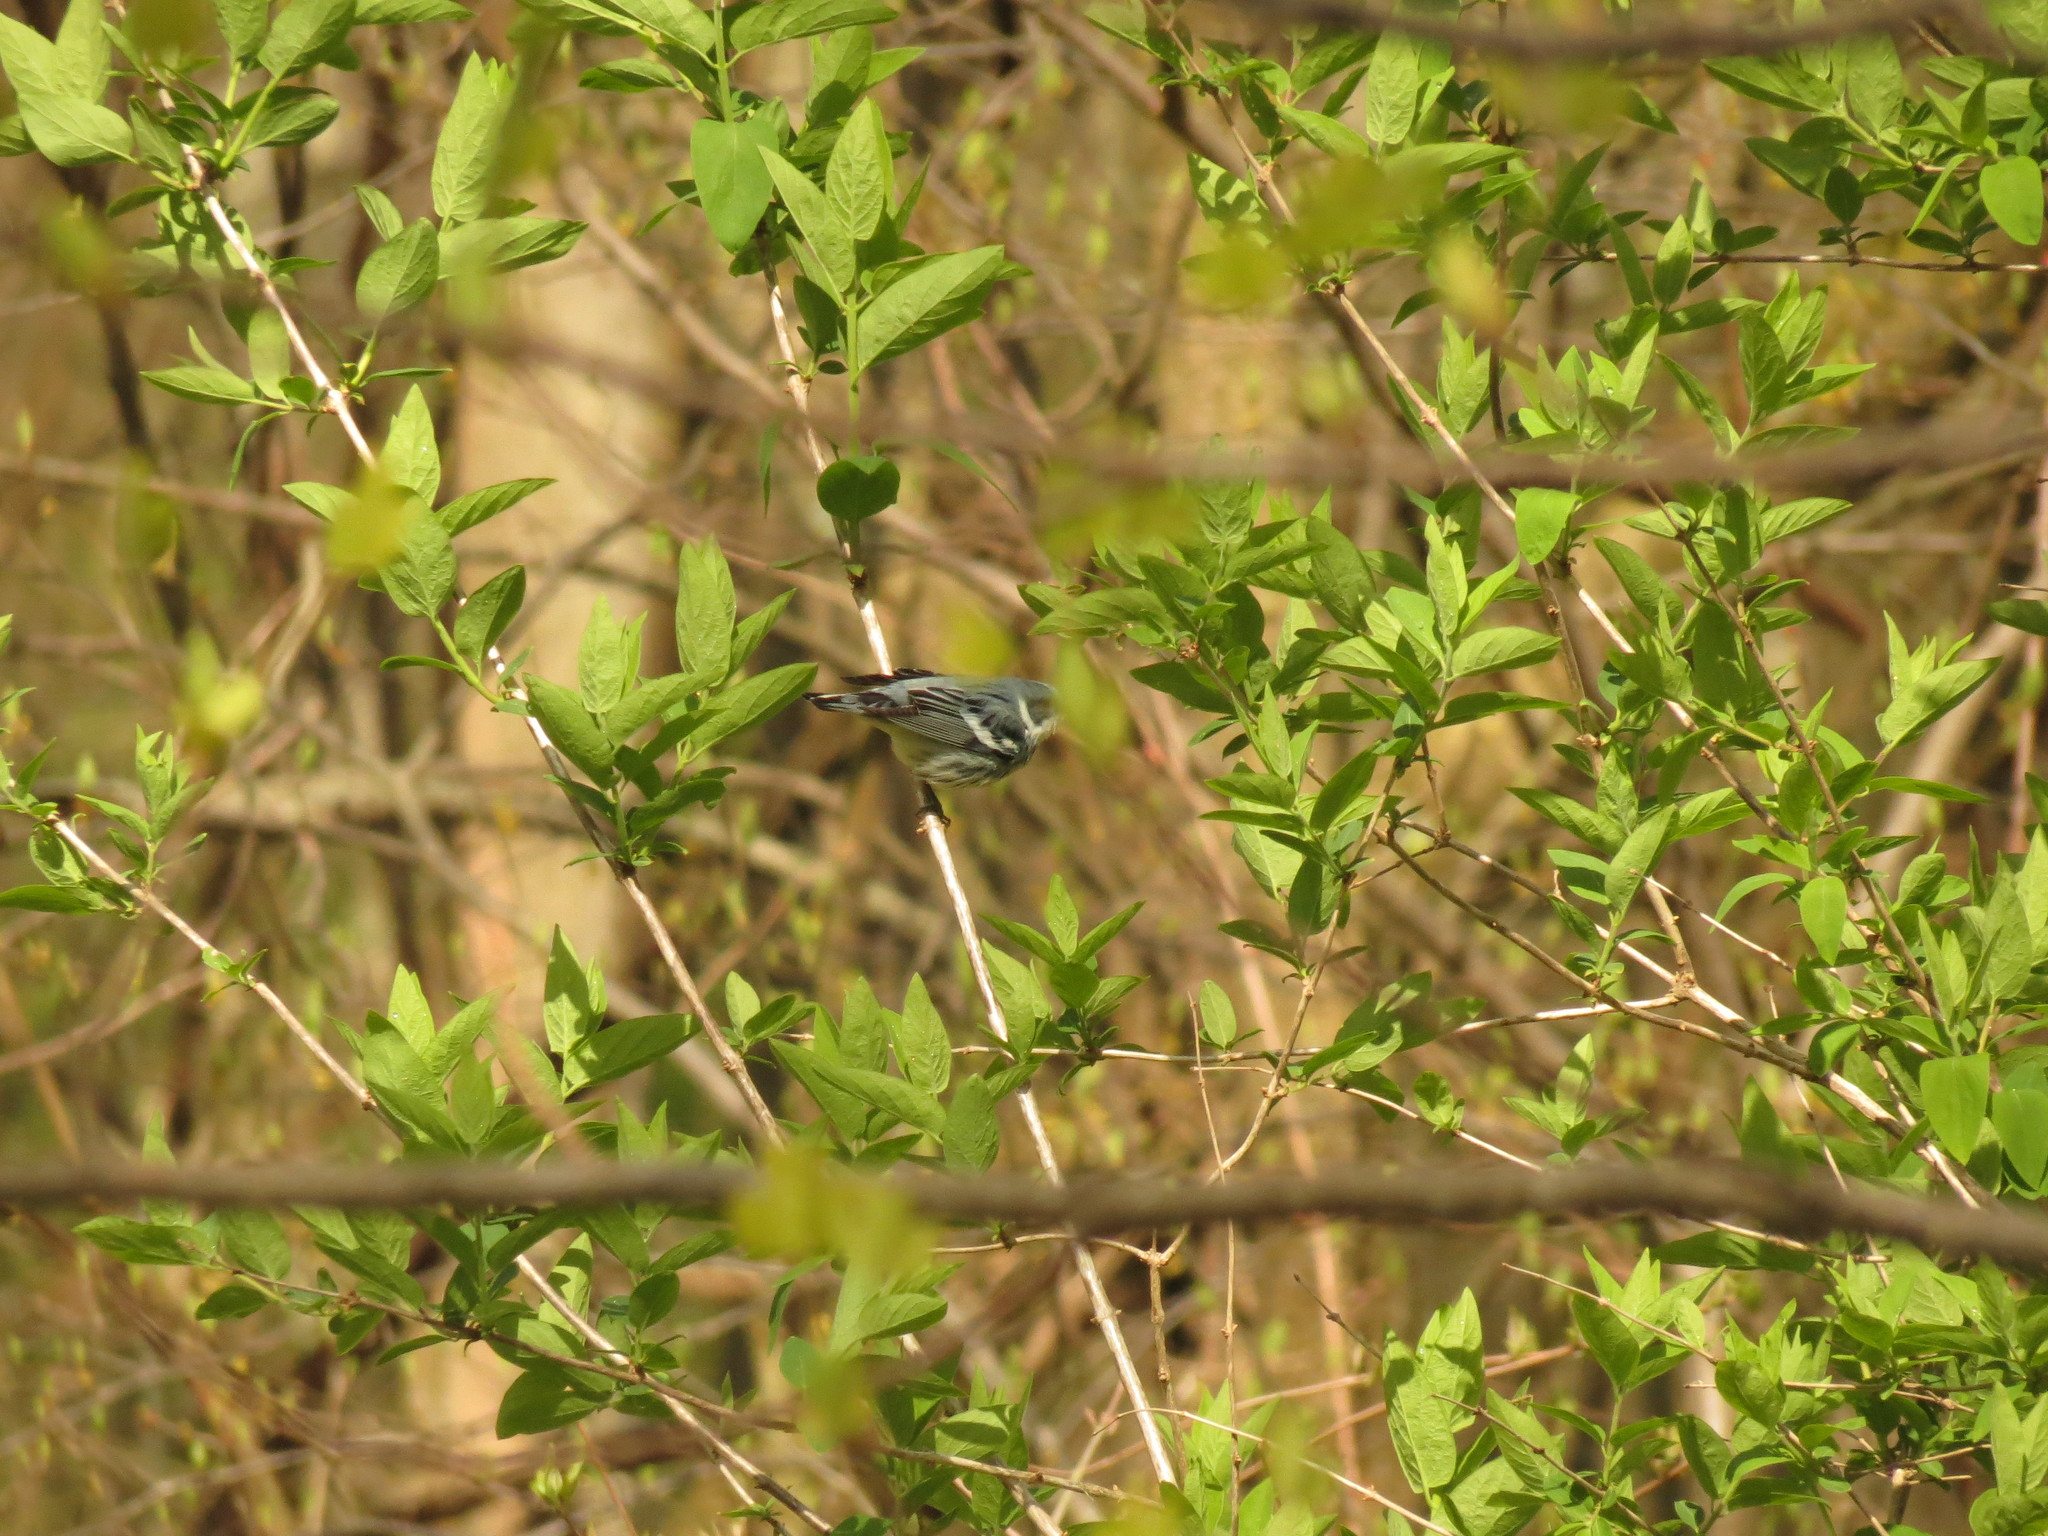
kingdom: Animalia
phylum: Chordata
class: Aves
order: Passeriformes
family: Parulidae
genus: Setophaga
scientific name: Setophaga cerulea
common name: Cerulean warbler
